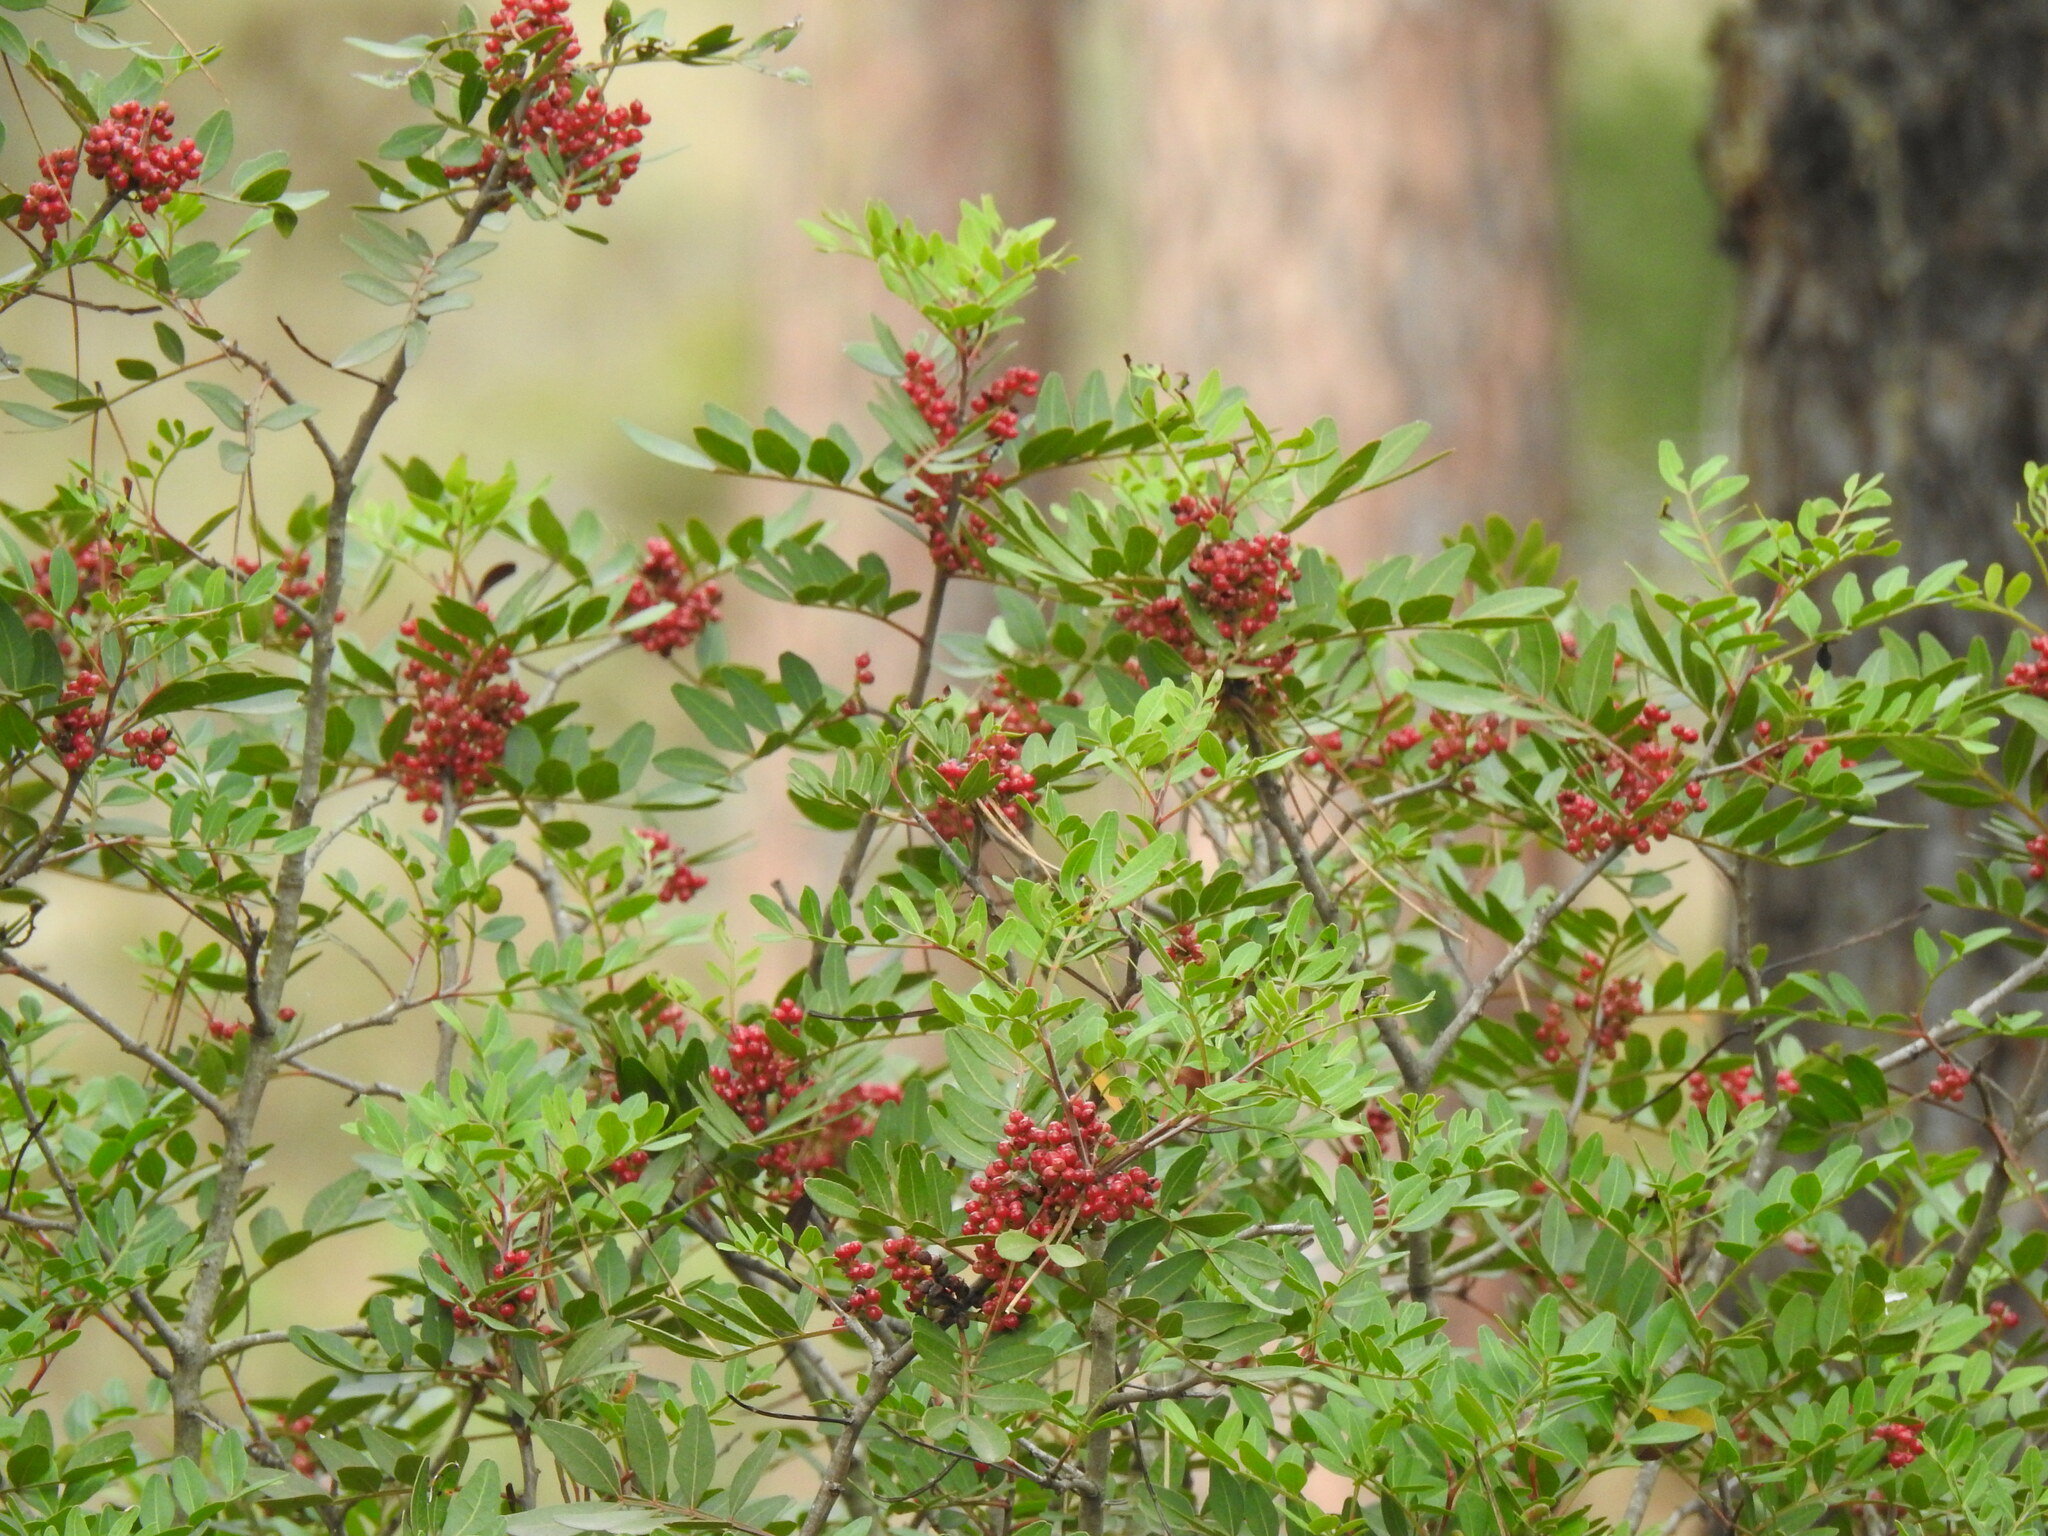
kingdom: Plantae
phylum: Tracheophyta
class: Magnoliopsida
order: Sapindales
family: Anacardiaceae
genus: Pistacia
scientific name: Pistacia lentiscus
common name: Lentisk
